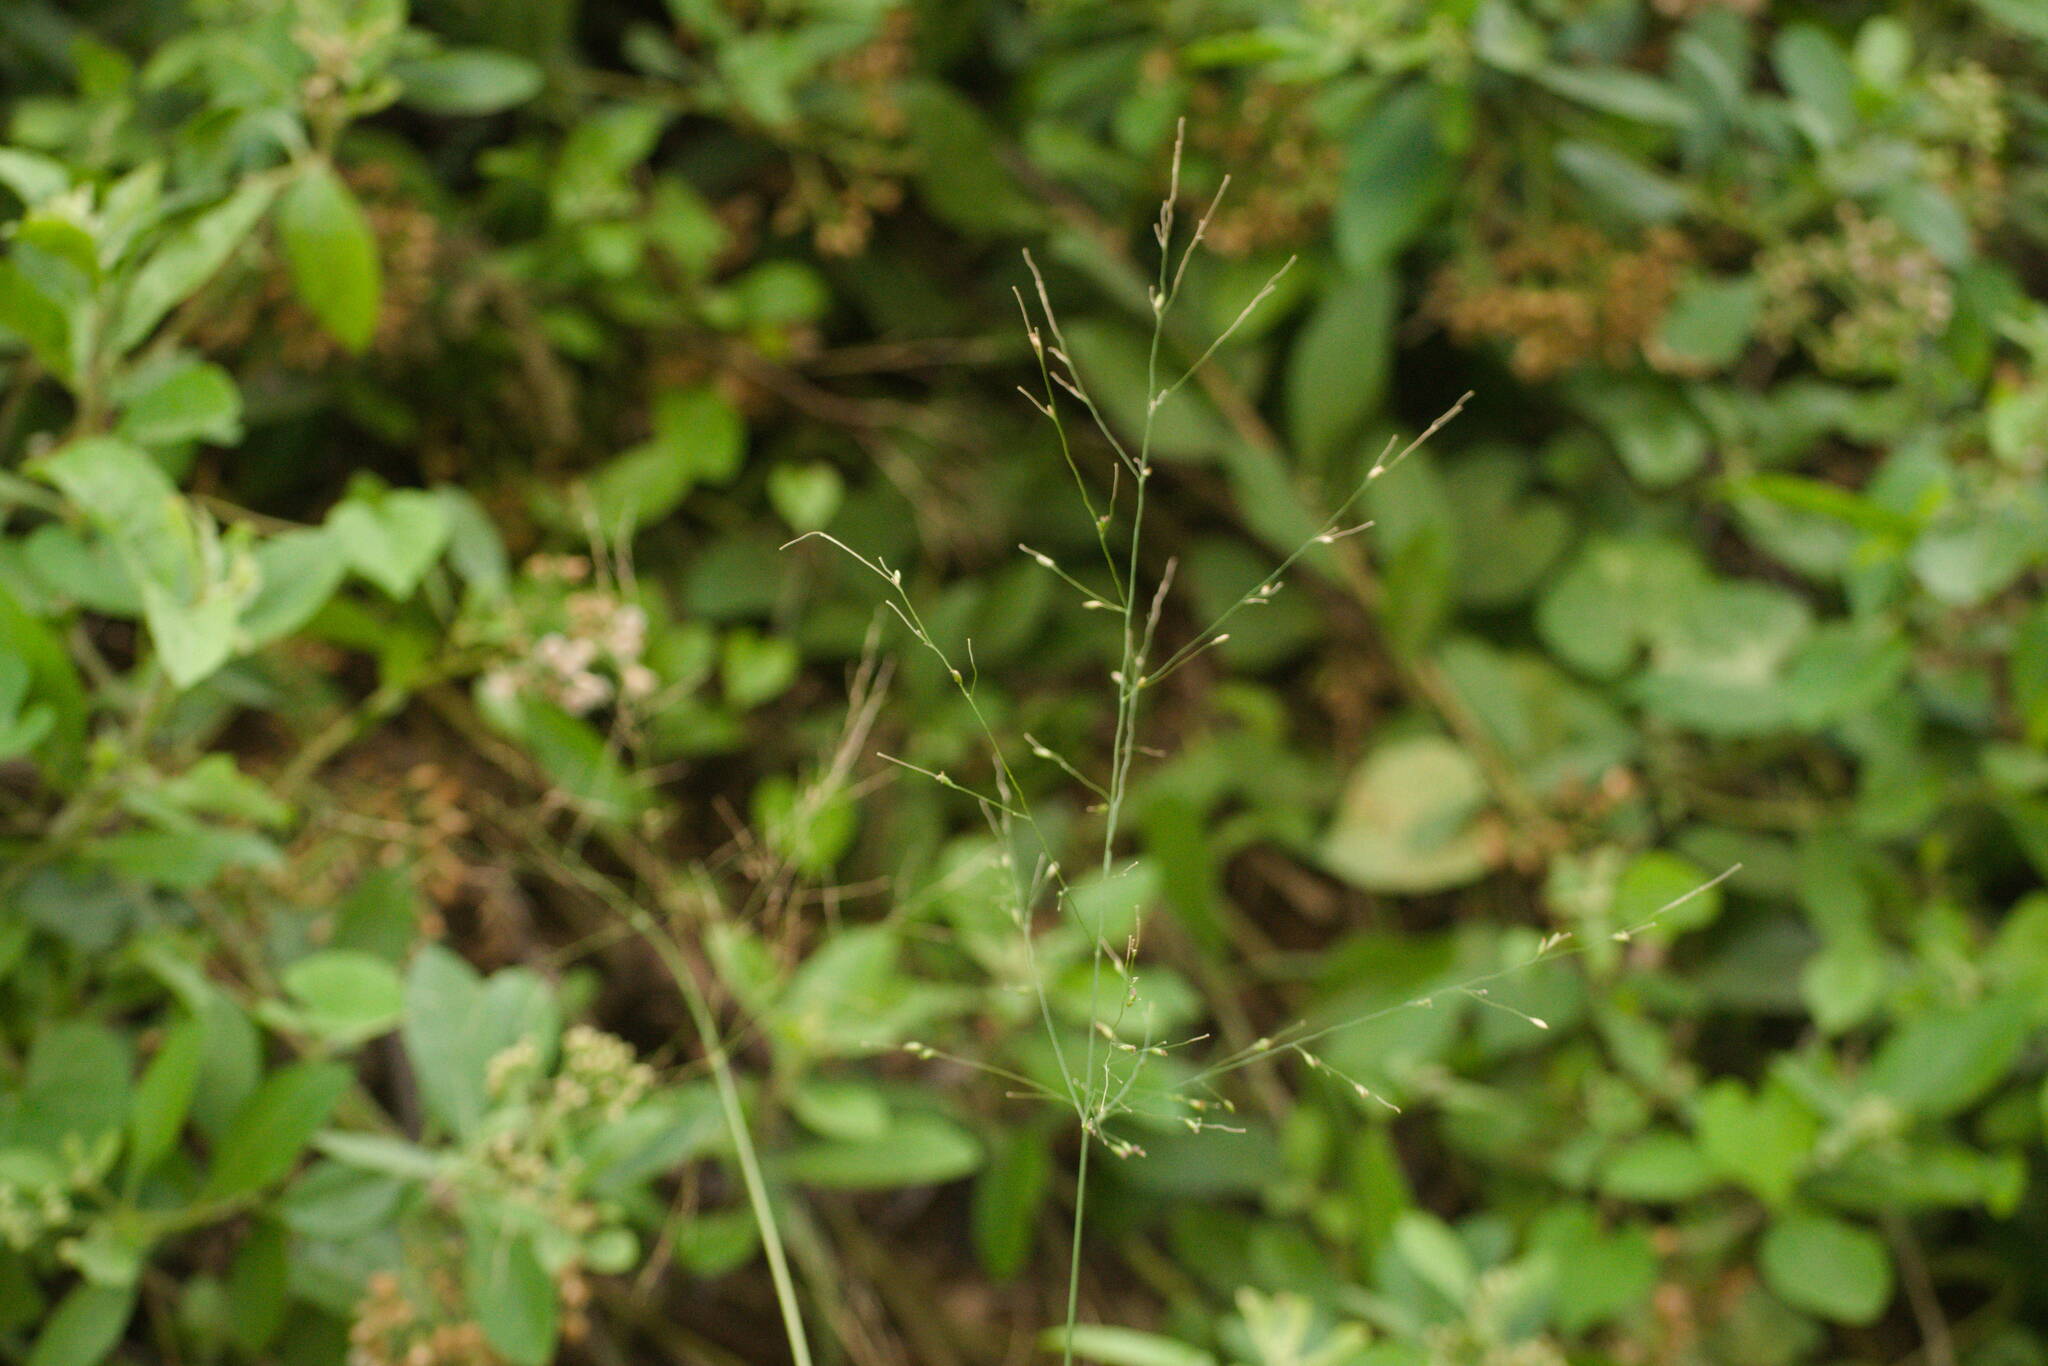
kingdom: Plantae
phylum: Tracheophyta
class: Liliopsida
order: Poales
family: Poaceae
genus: Megathyrsus
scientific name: Megathyrsus maximus
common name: Guineagrass
